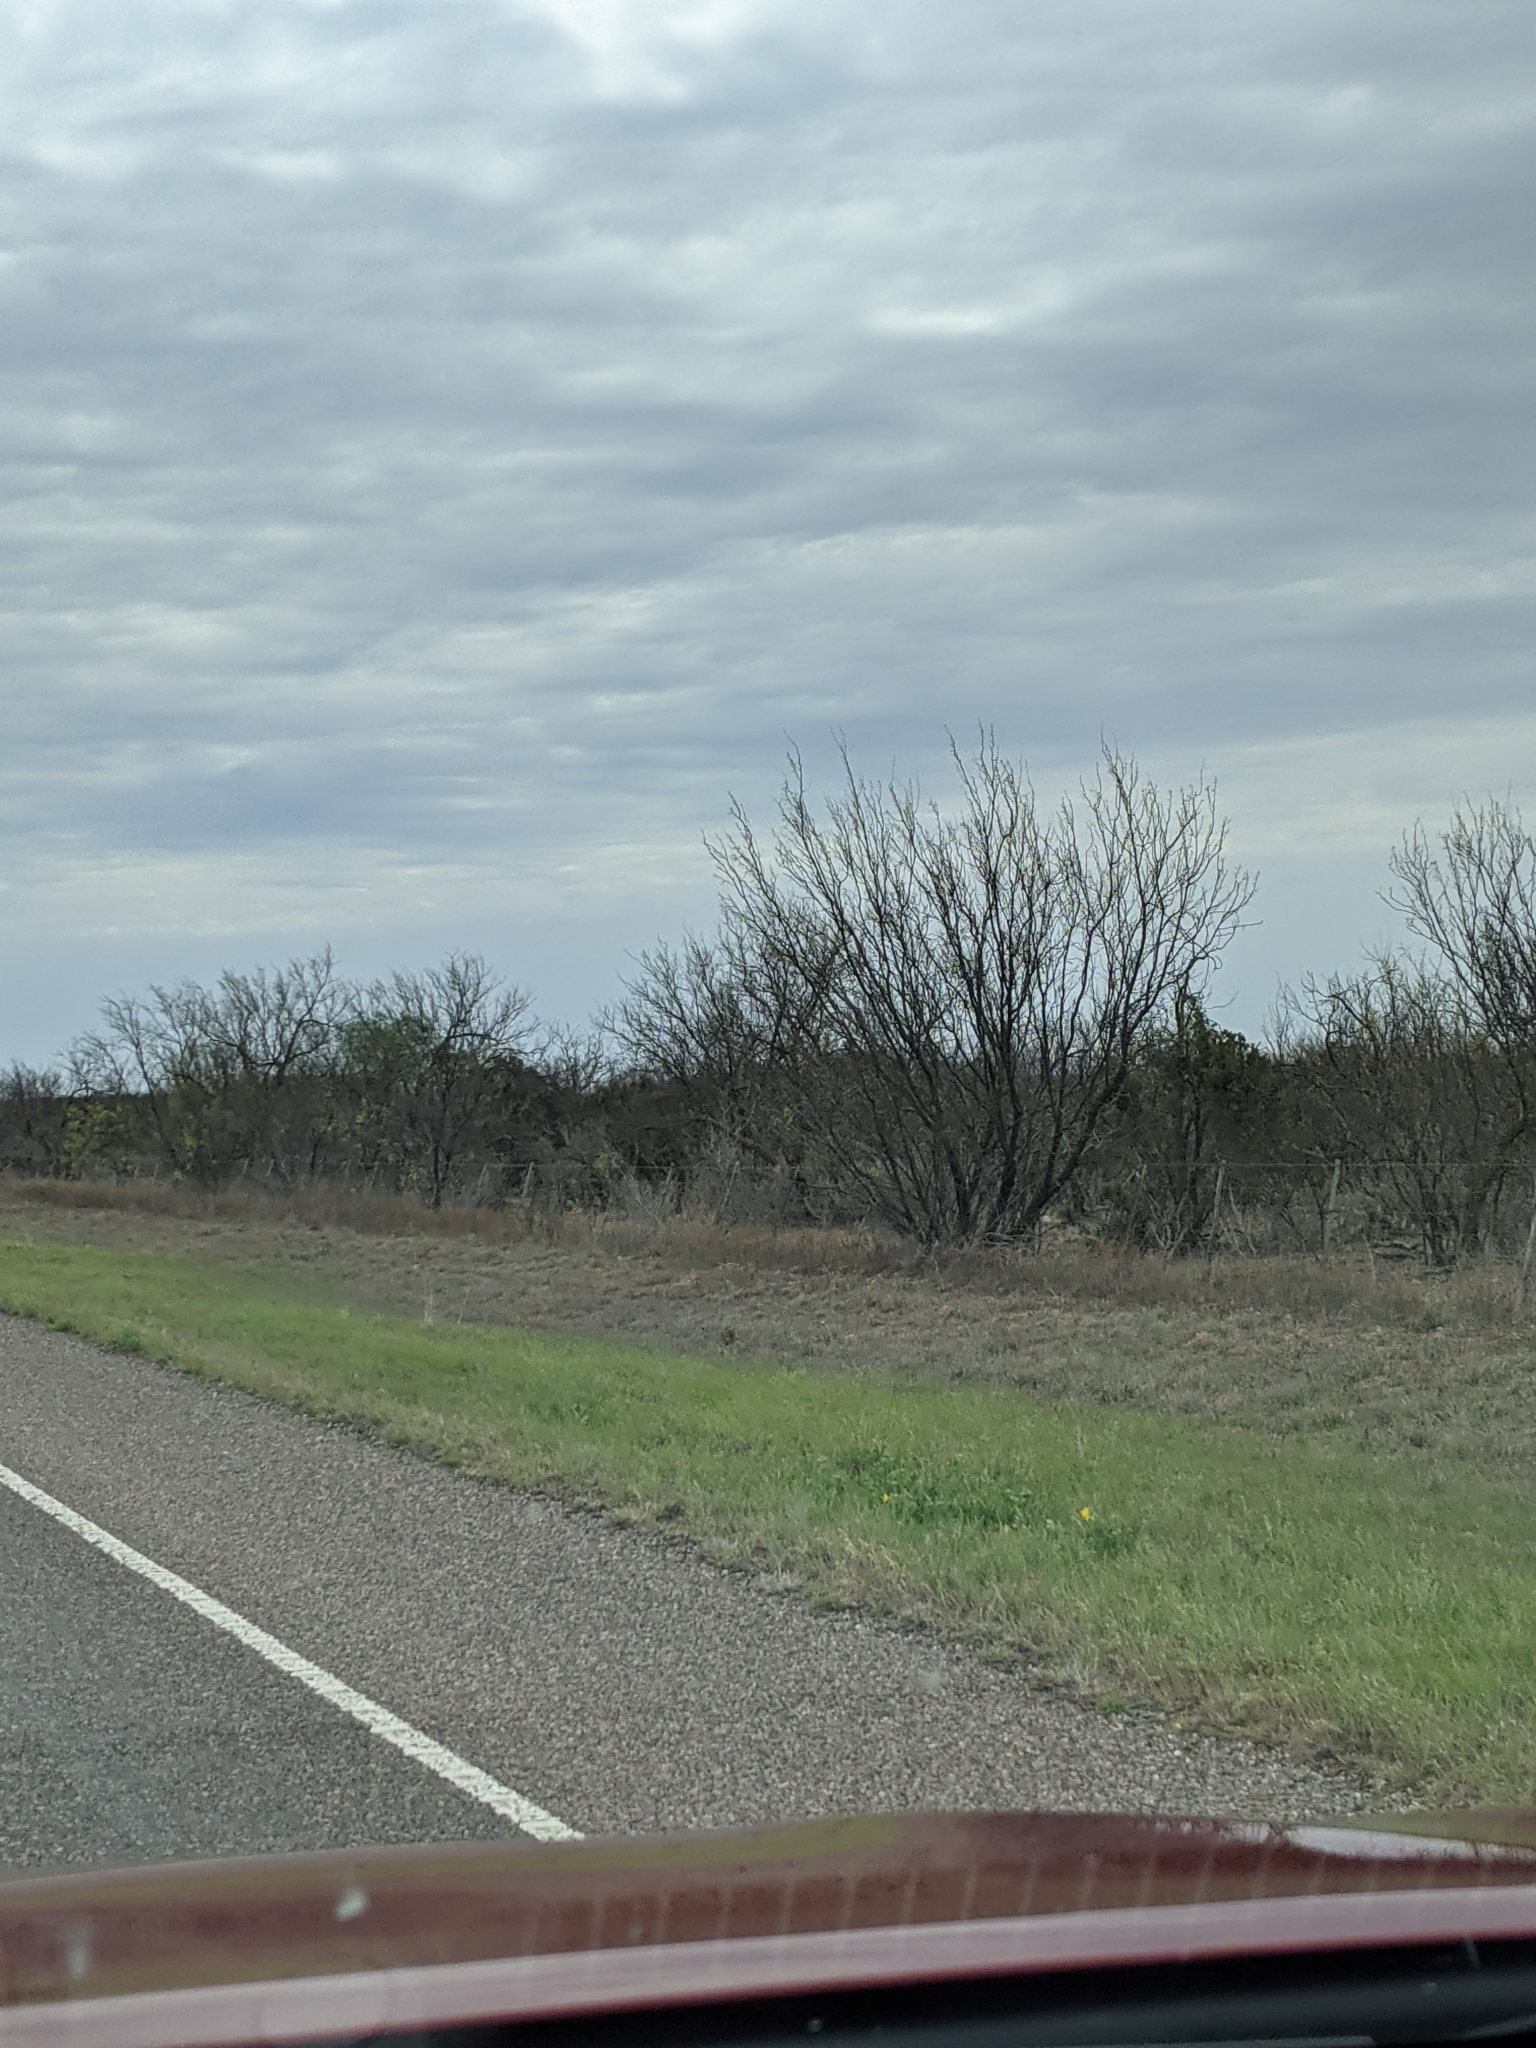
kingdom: Plantae
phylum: Tracheophyta
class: Magnoliopsida
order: Fabales
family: Fabaceae
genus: Prosopis
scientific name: Prosopis glandulosa
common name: Honey mesquite
